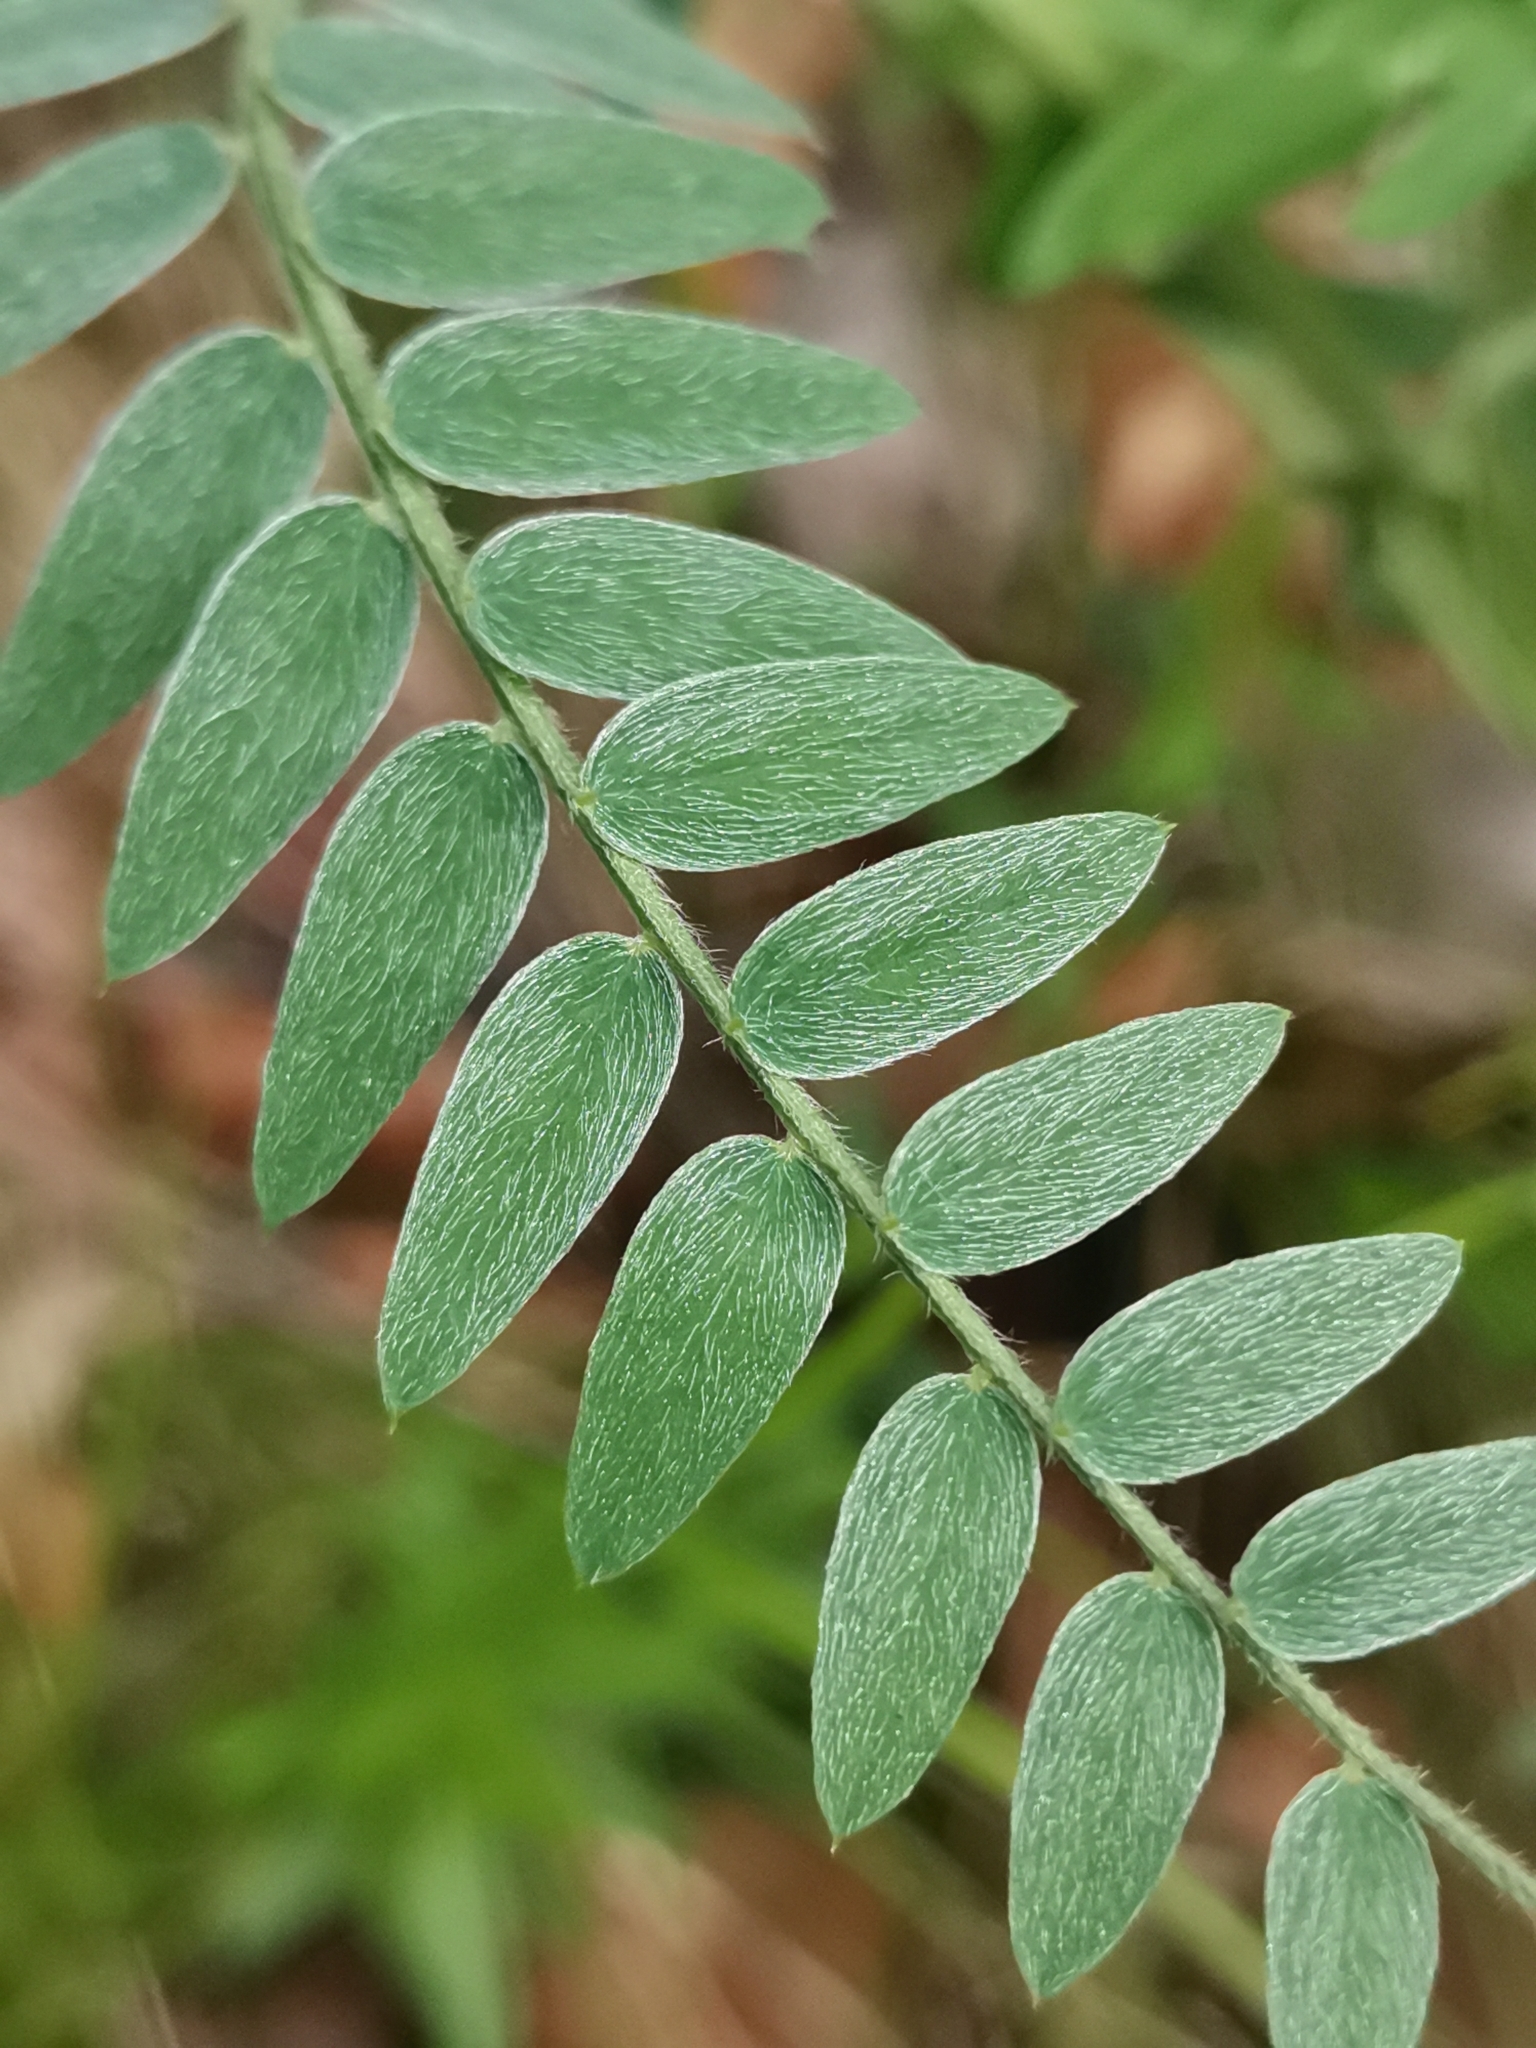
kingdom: Plantae
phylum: Tracheophyta
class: Magnoliopsida
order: Fabales
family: Fabaceae
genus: Vicia
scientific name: Vicia incana
